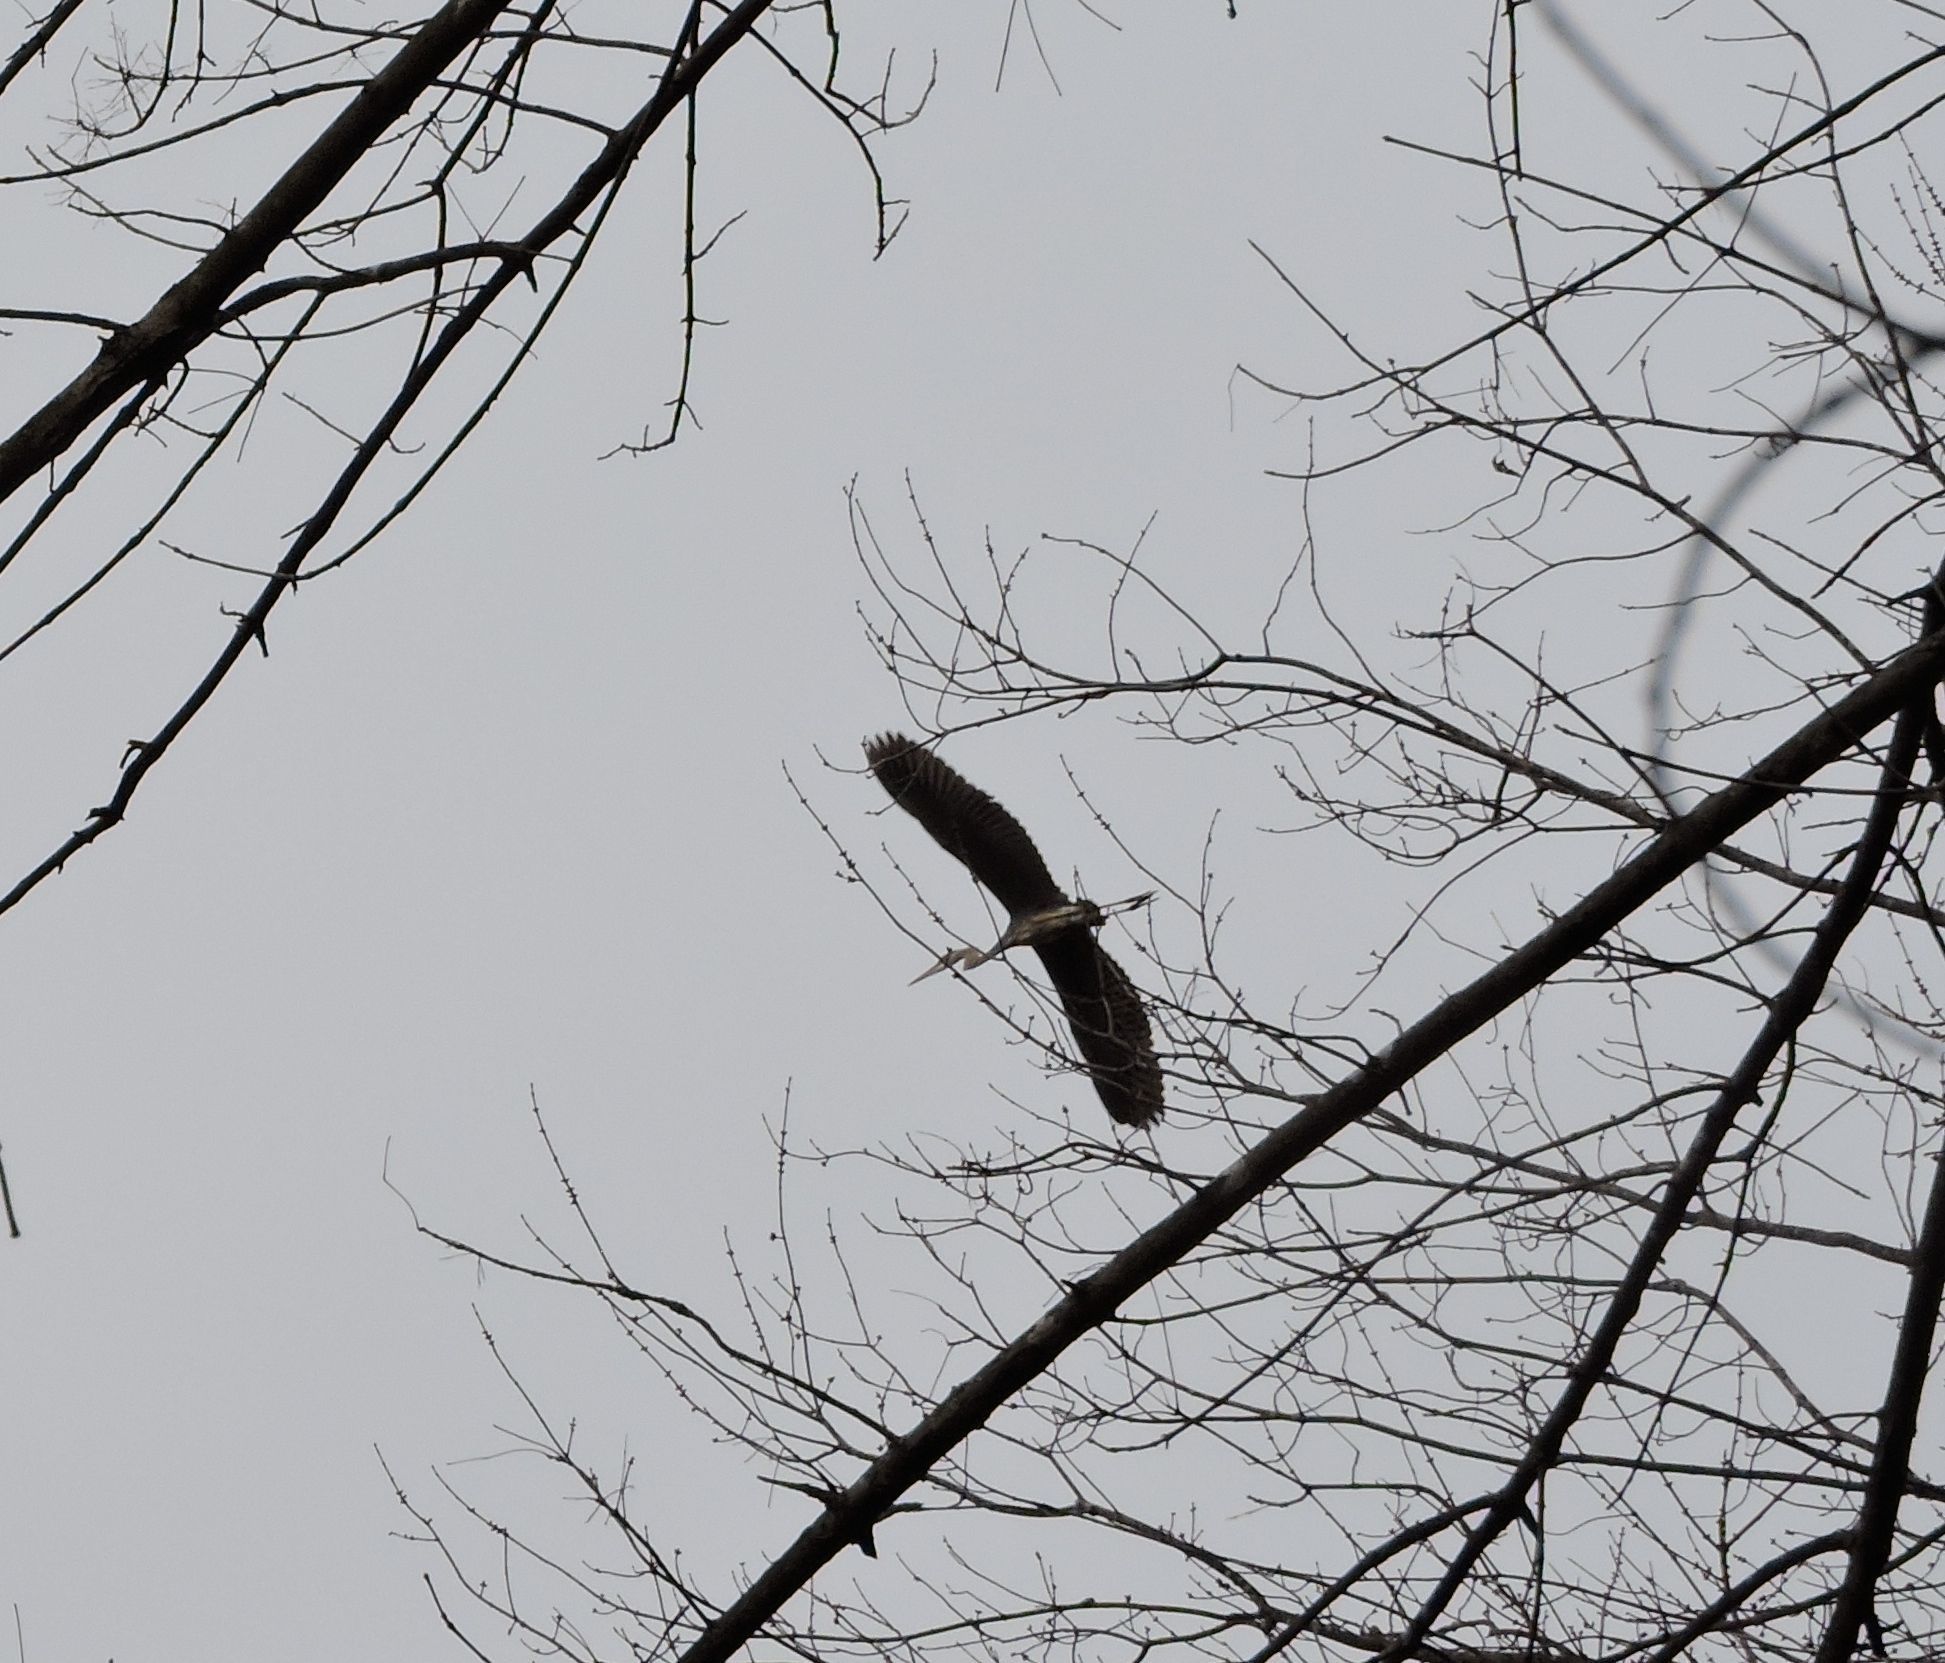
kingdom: Animalia
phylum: Chordata
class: Aves
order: Pelecaniformes
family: Ardeidae
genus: Ardea
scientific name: Ardea herodias
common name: Great blue heron
